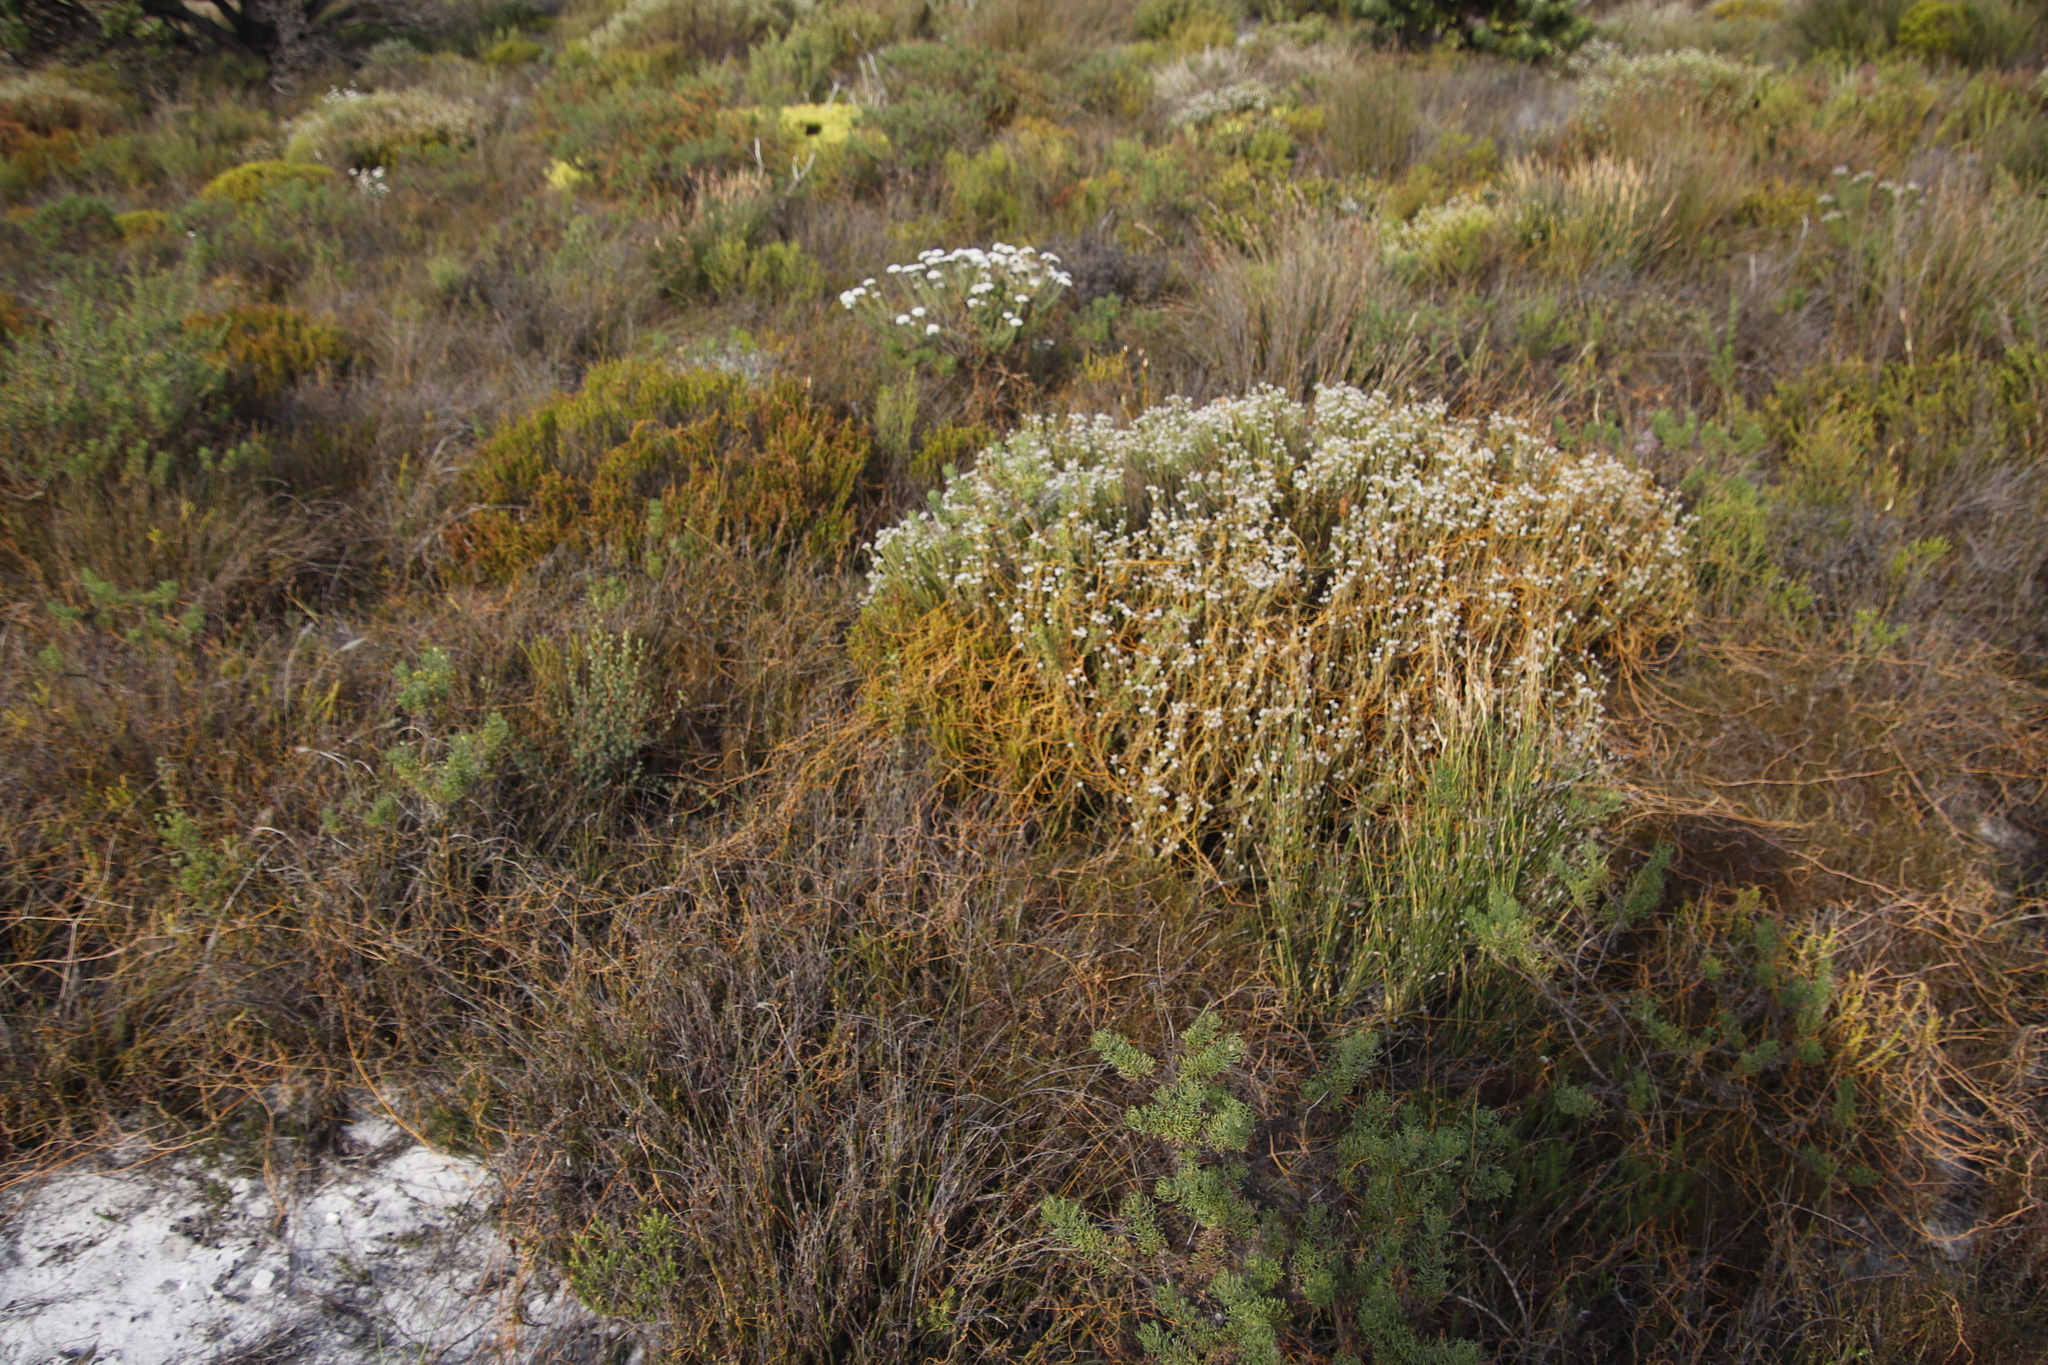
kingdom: Plantae
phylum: Tracheophyta
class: Magnoliopsida
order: Laurales
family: Lauraceae
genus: Cassytha
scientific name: Cassytha ciliolata
